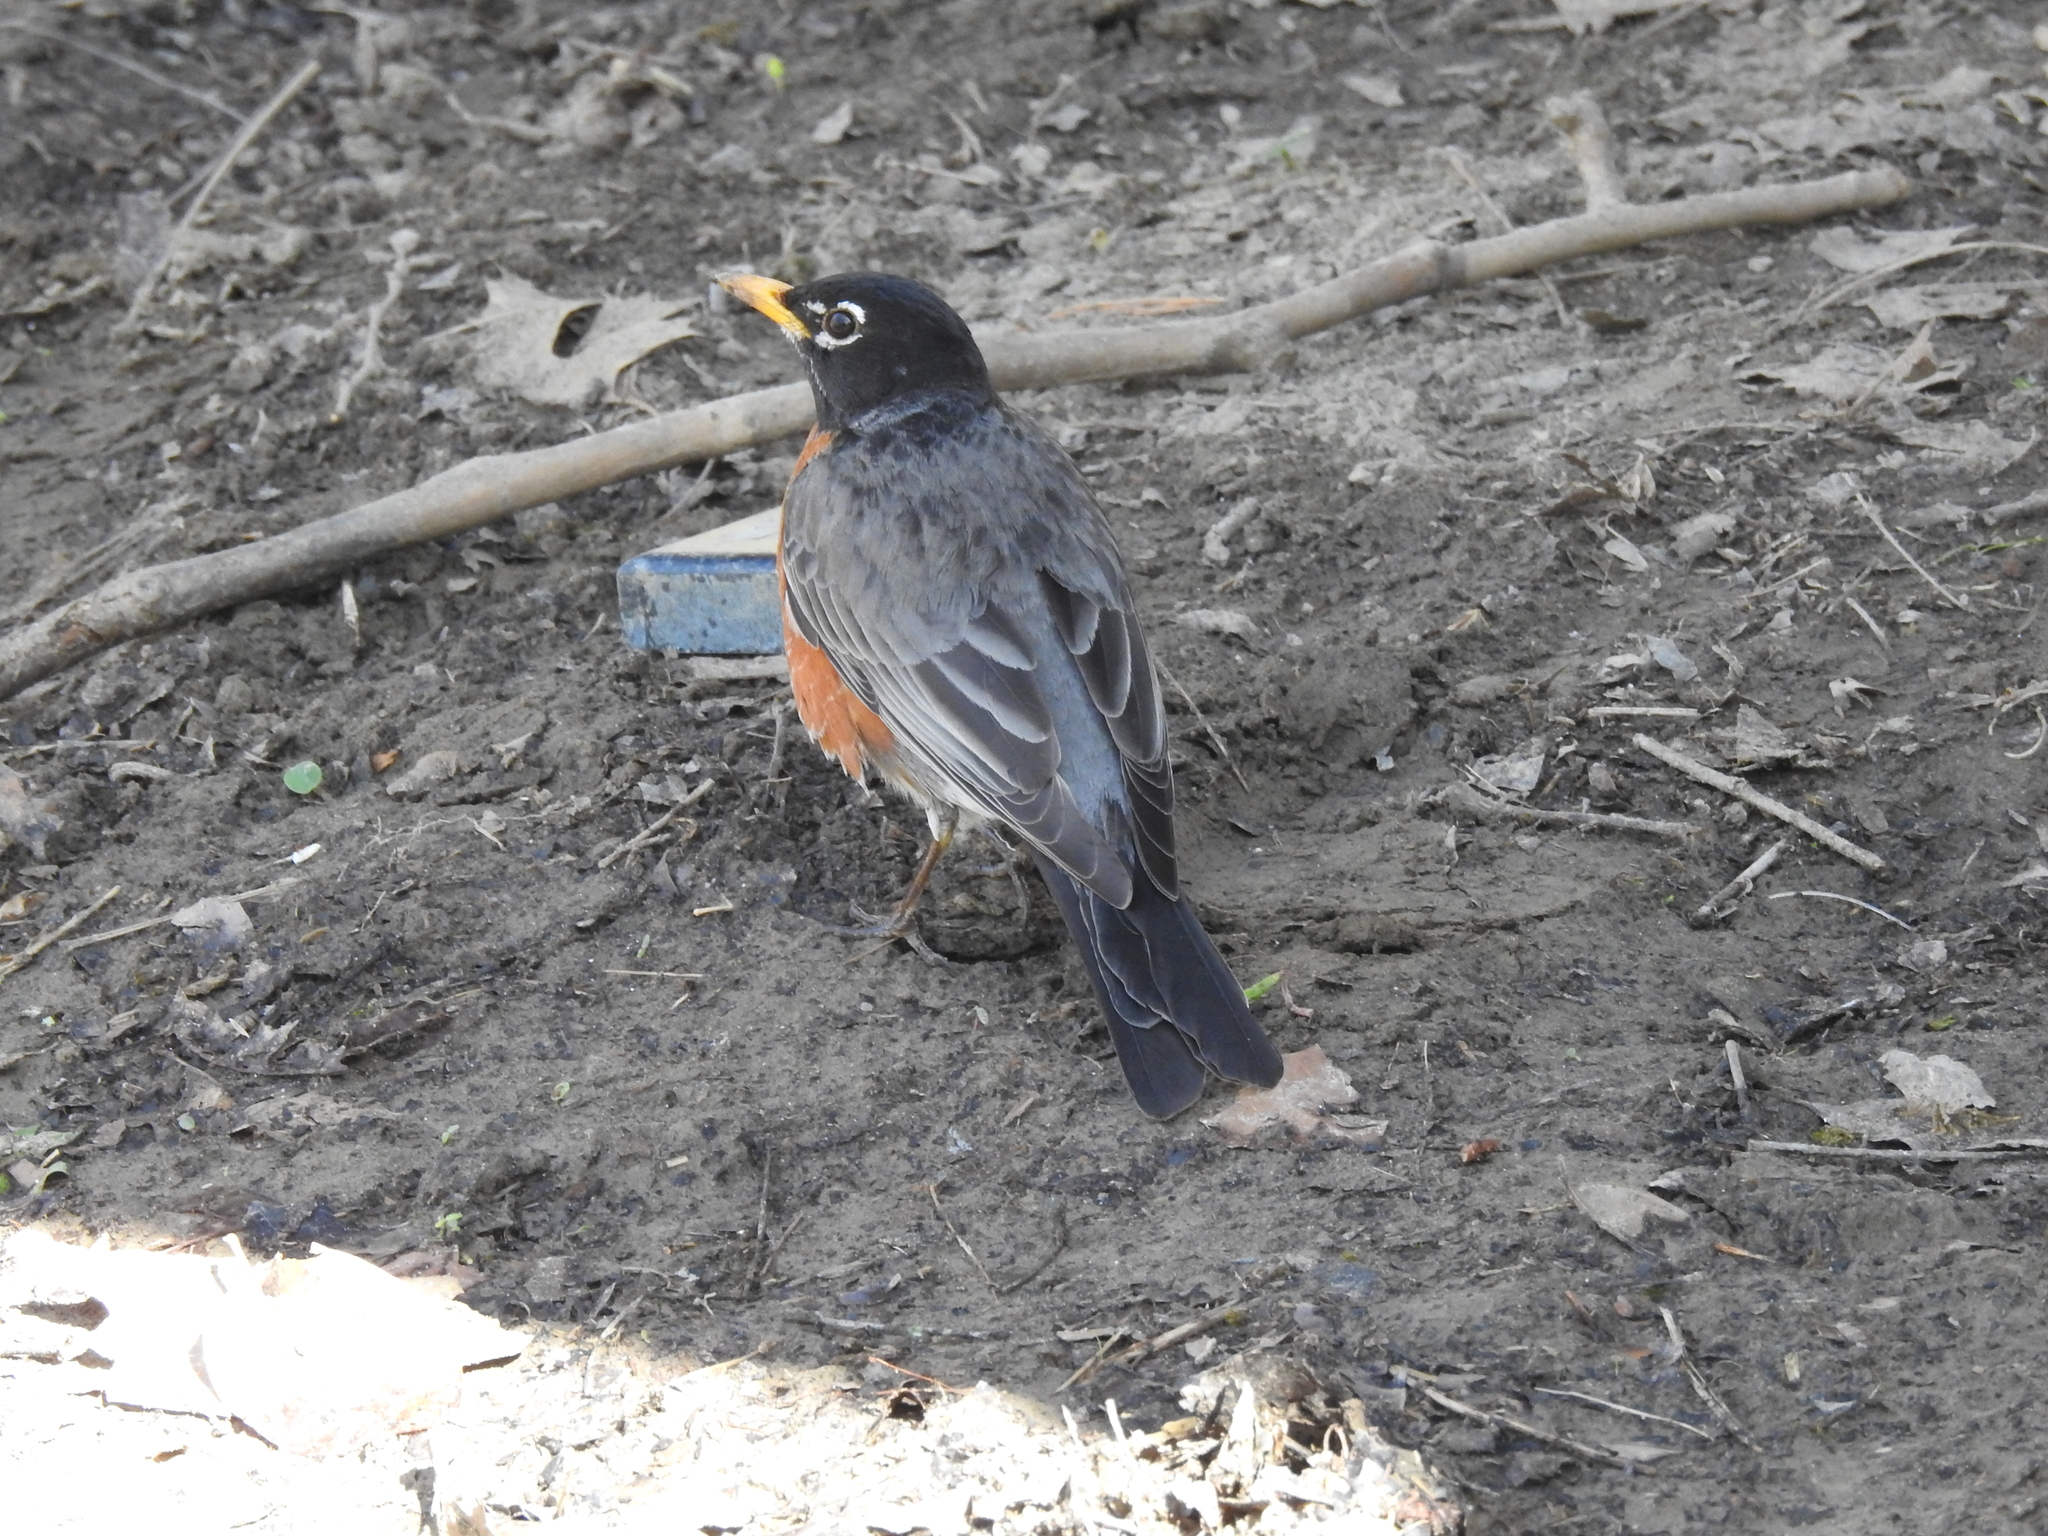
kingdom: Animalia
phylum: Chordata
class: Aves
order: Passeriformes
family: Turdidae
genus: Turdus
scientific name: Turdus migratorius
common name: American robin
